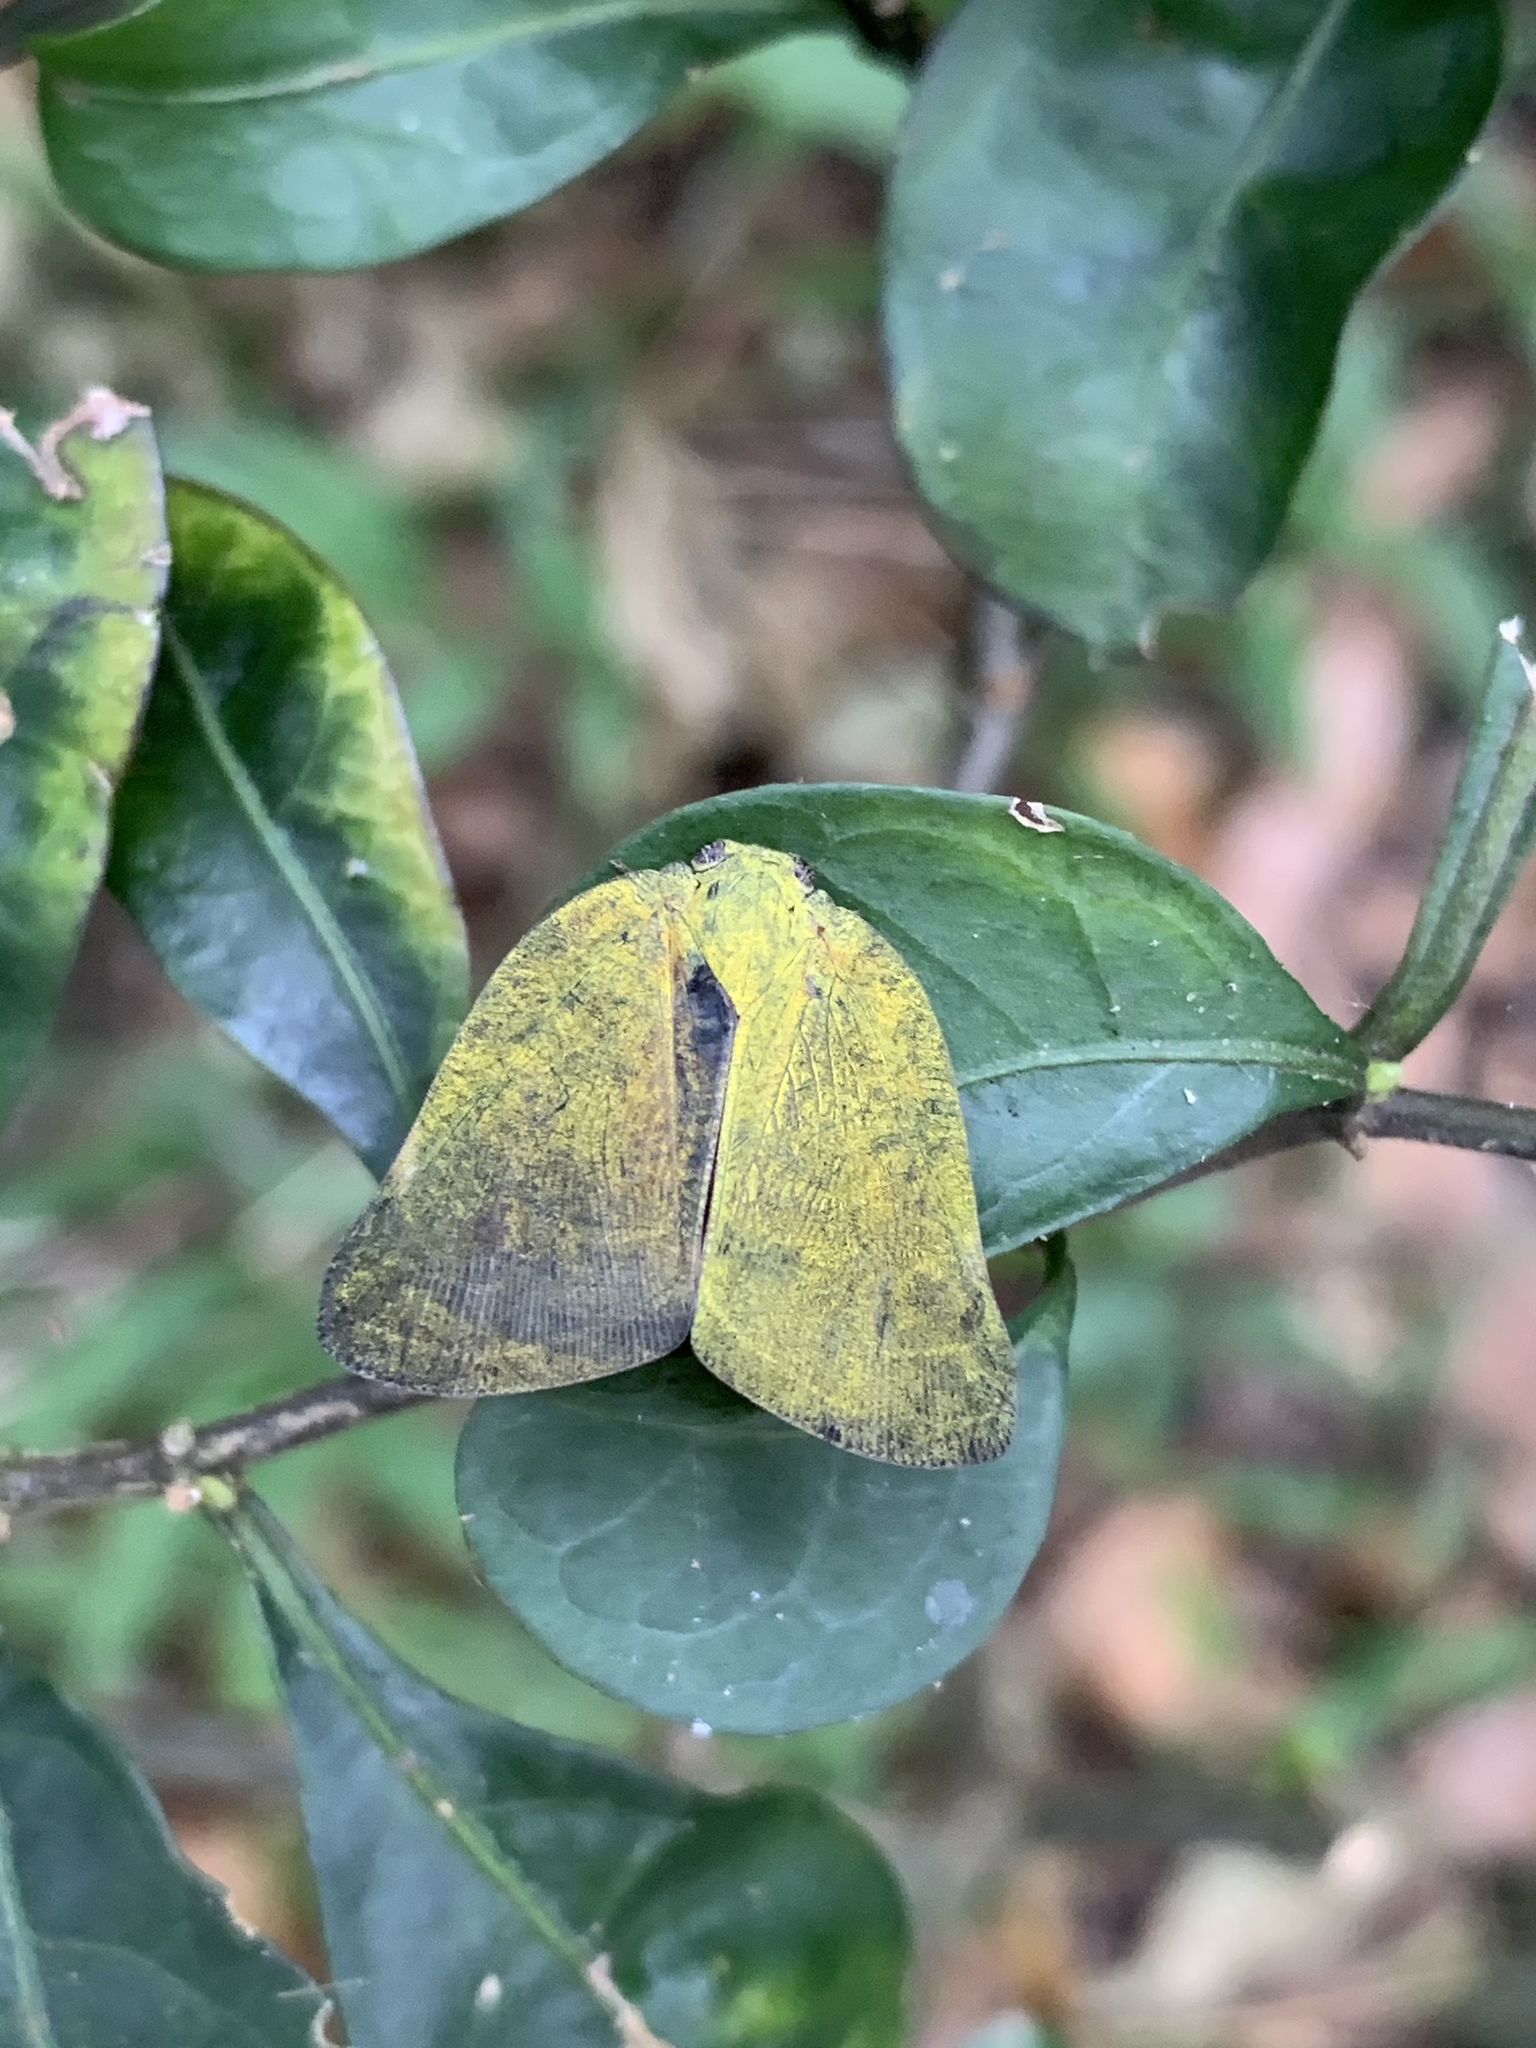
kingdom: Animalia
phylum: Arthropoda
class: Insecta
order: Hemiptera
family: Ricaniidae
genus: Ricanula
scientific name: Ricanula sublimata
